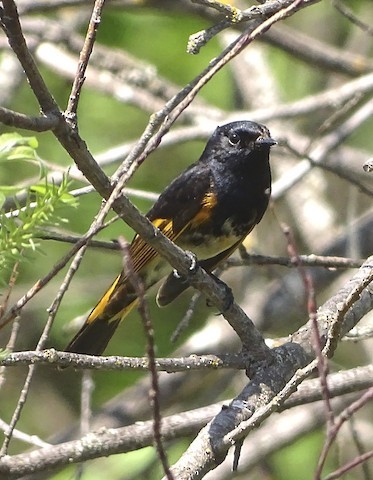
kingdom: Animalia
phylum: Chordata
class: Aves
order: Passeriformes
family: Parulidae
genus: Setophaga
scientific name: Setophaga ruticilla
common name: American redstart
